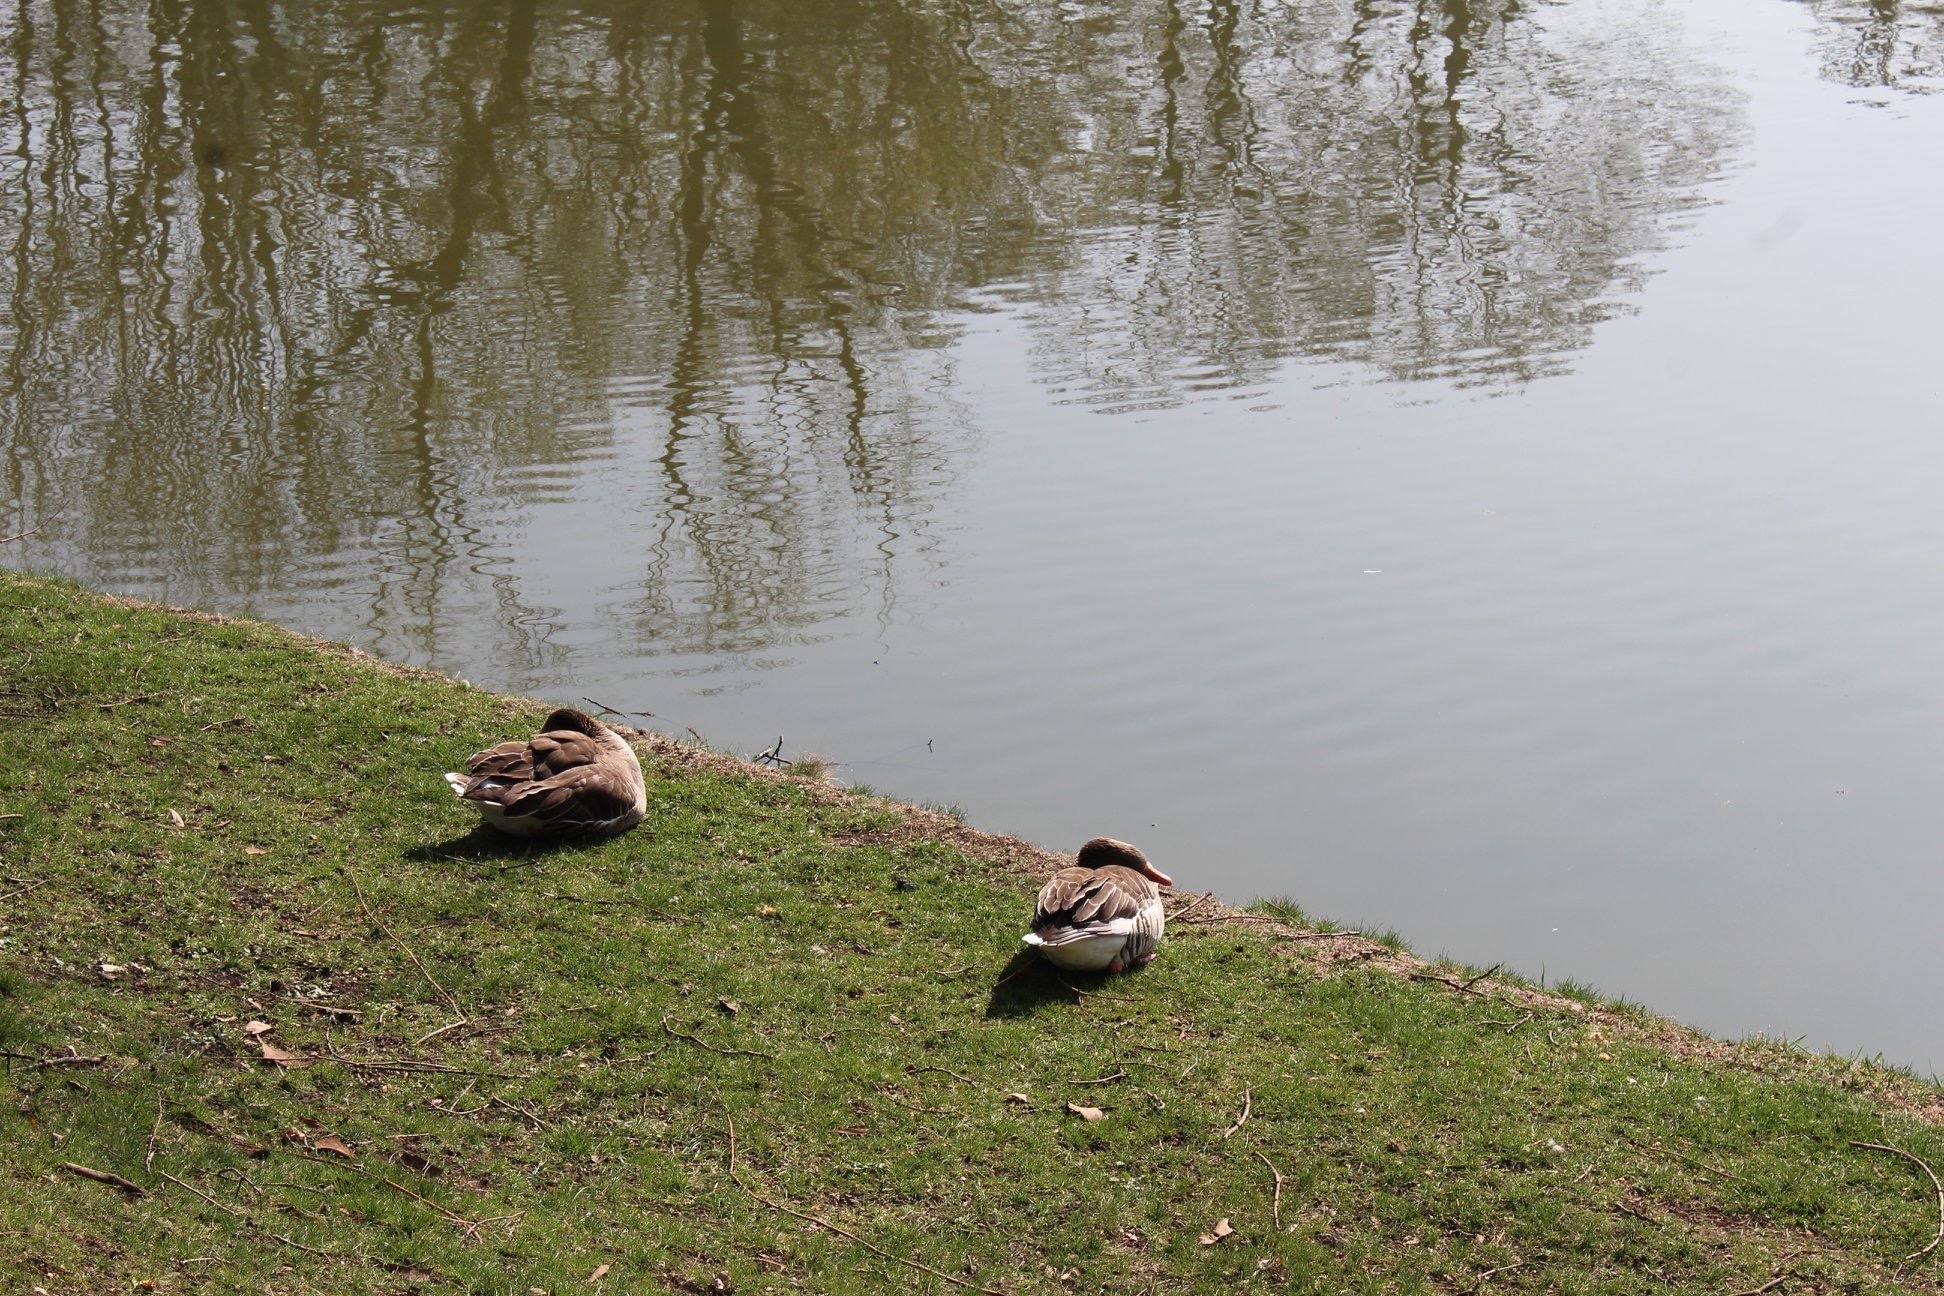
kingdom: Animalia
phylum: Chordata
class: Aves
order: Anseriformes
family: Anatidae
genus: Anser
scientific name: Anser anser
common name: Greylag goose
